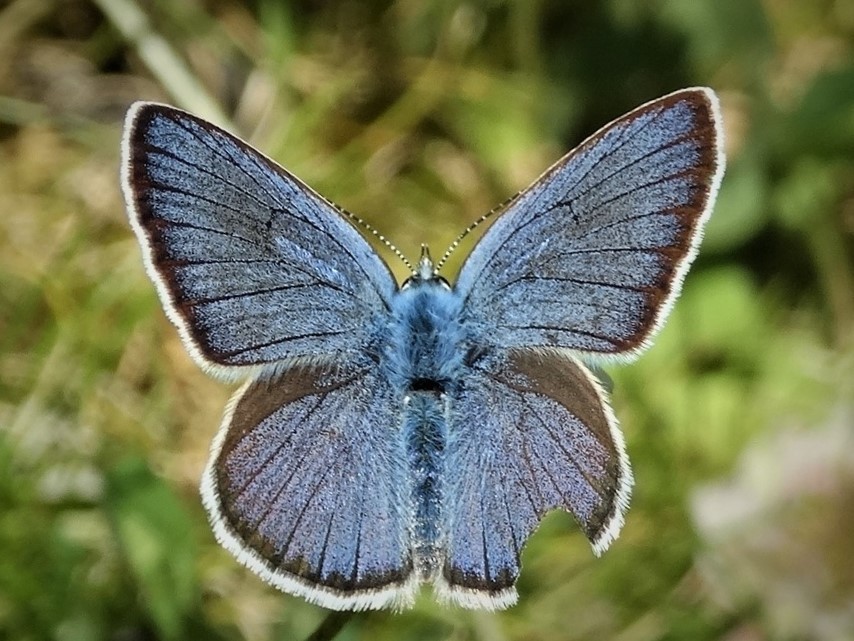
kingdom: Animalia
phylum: Arthropoda
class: Insecta
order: Lepidoptera
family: Lycaenidae
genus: Cyaniris
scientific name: Cyaniris semiargus
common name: Mazarine blue
